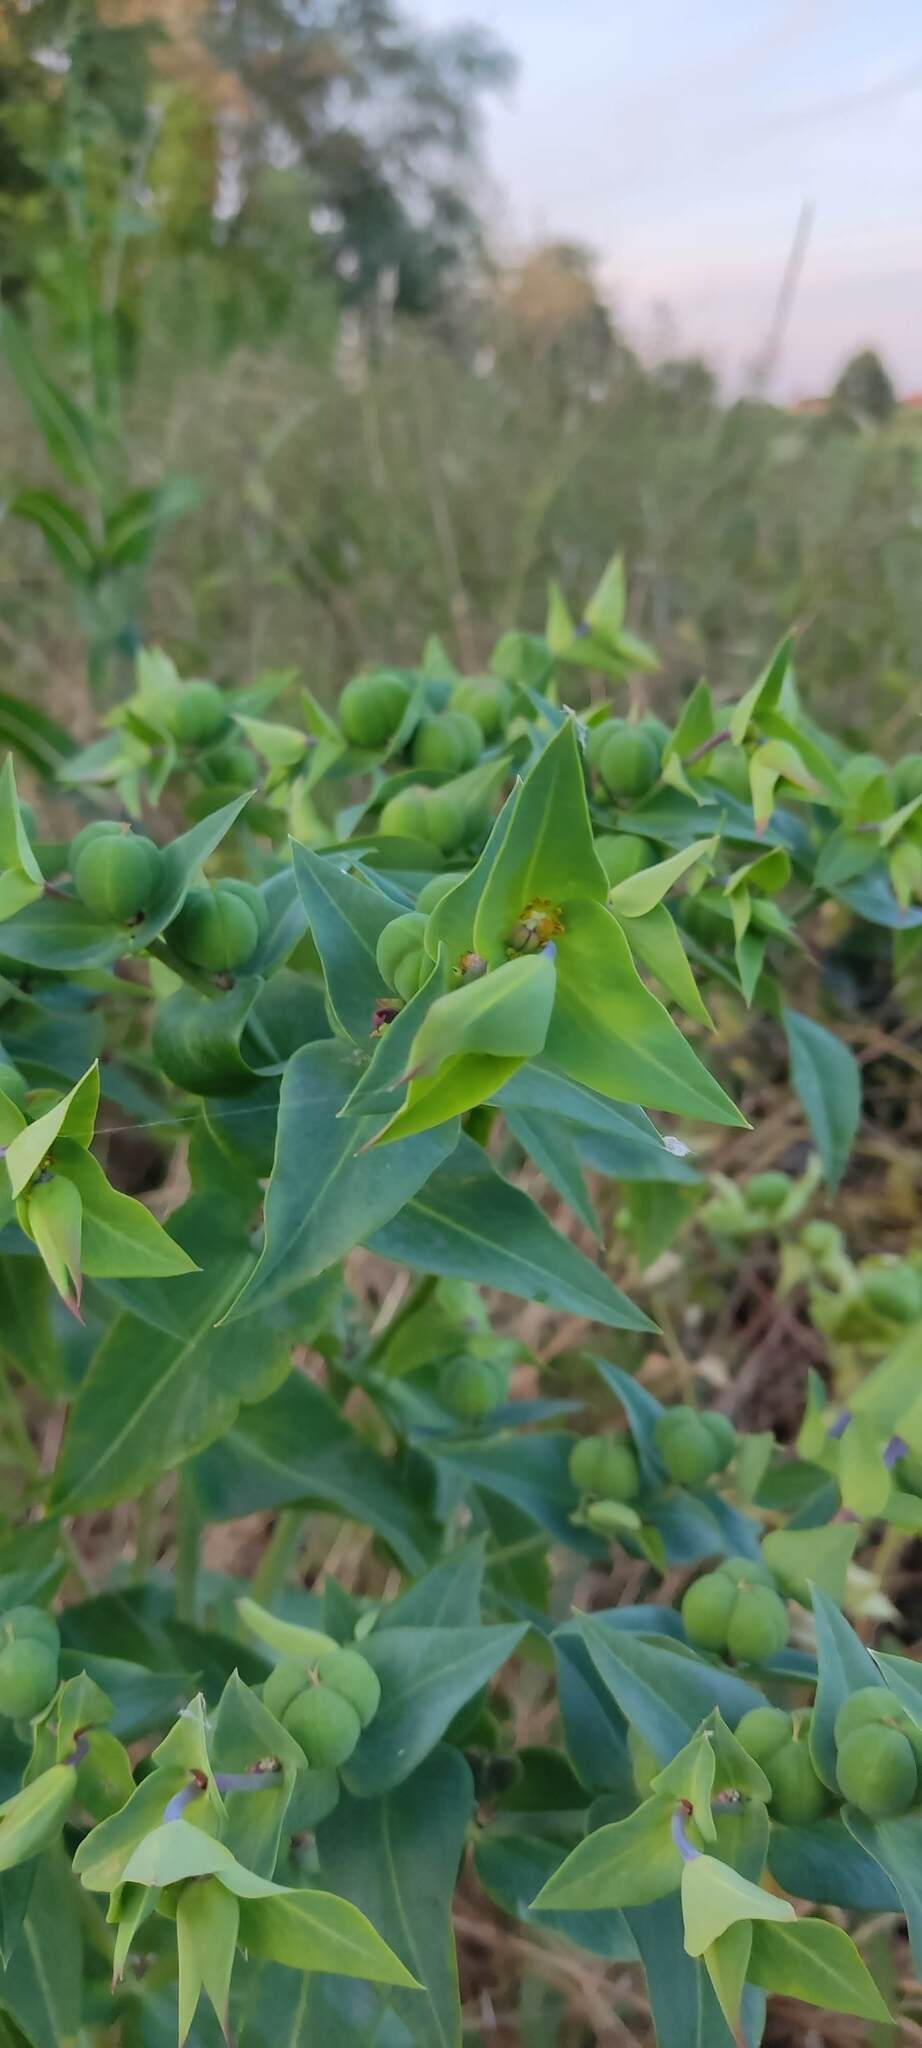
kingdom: Plantae
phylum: Tracheophyta
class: Magnoliopsida
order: Malpighiales
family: Euphorbiaceae
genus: Euphorbia
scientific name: Euphorbia lathyris
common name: Caper spurge
